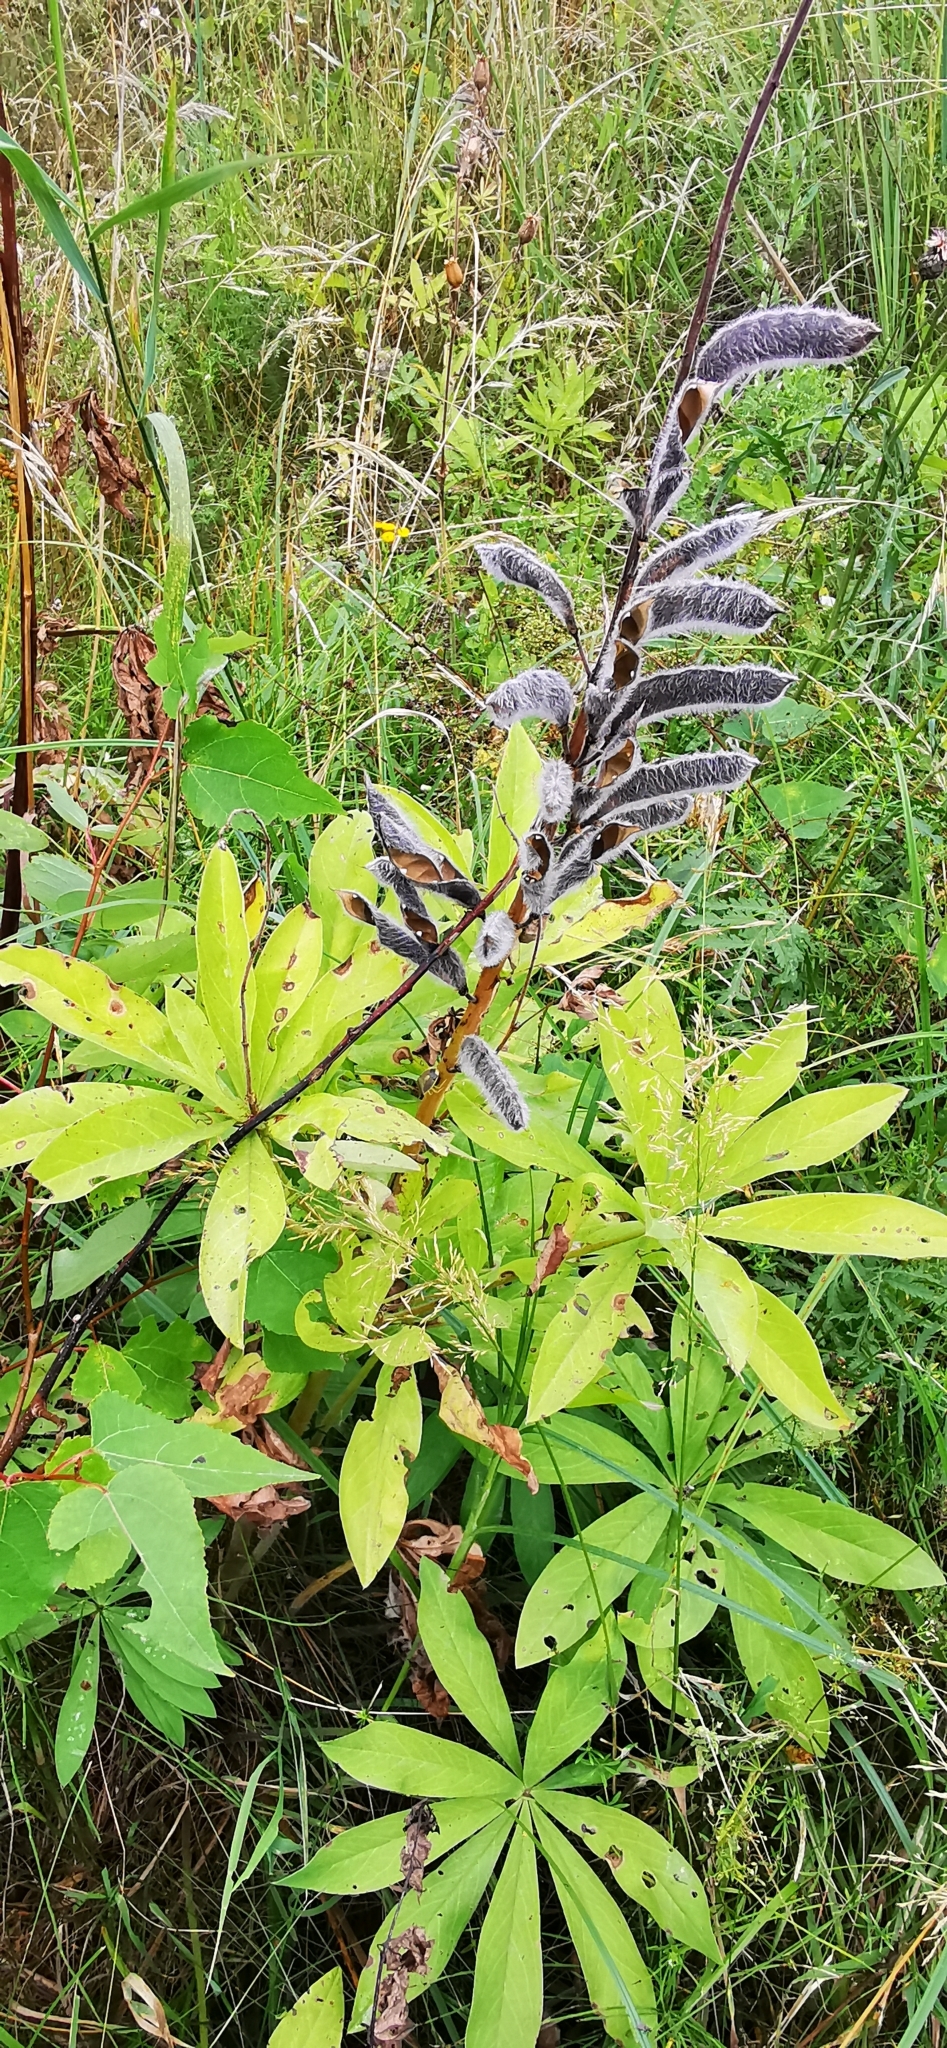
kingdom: Plantae
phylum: Tracheophyta
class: Magnoliopsida
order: Fabales
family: Fabaceae
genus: Lupinus
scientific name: Lupinus polyphyllus
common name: Garden lupin
